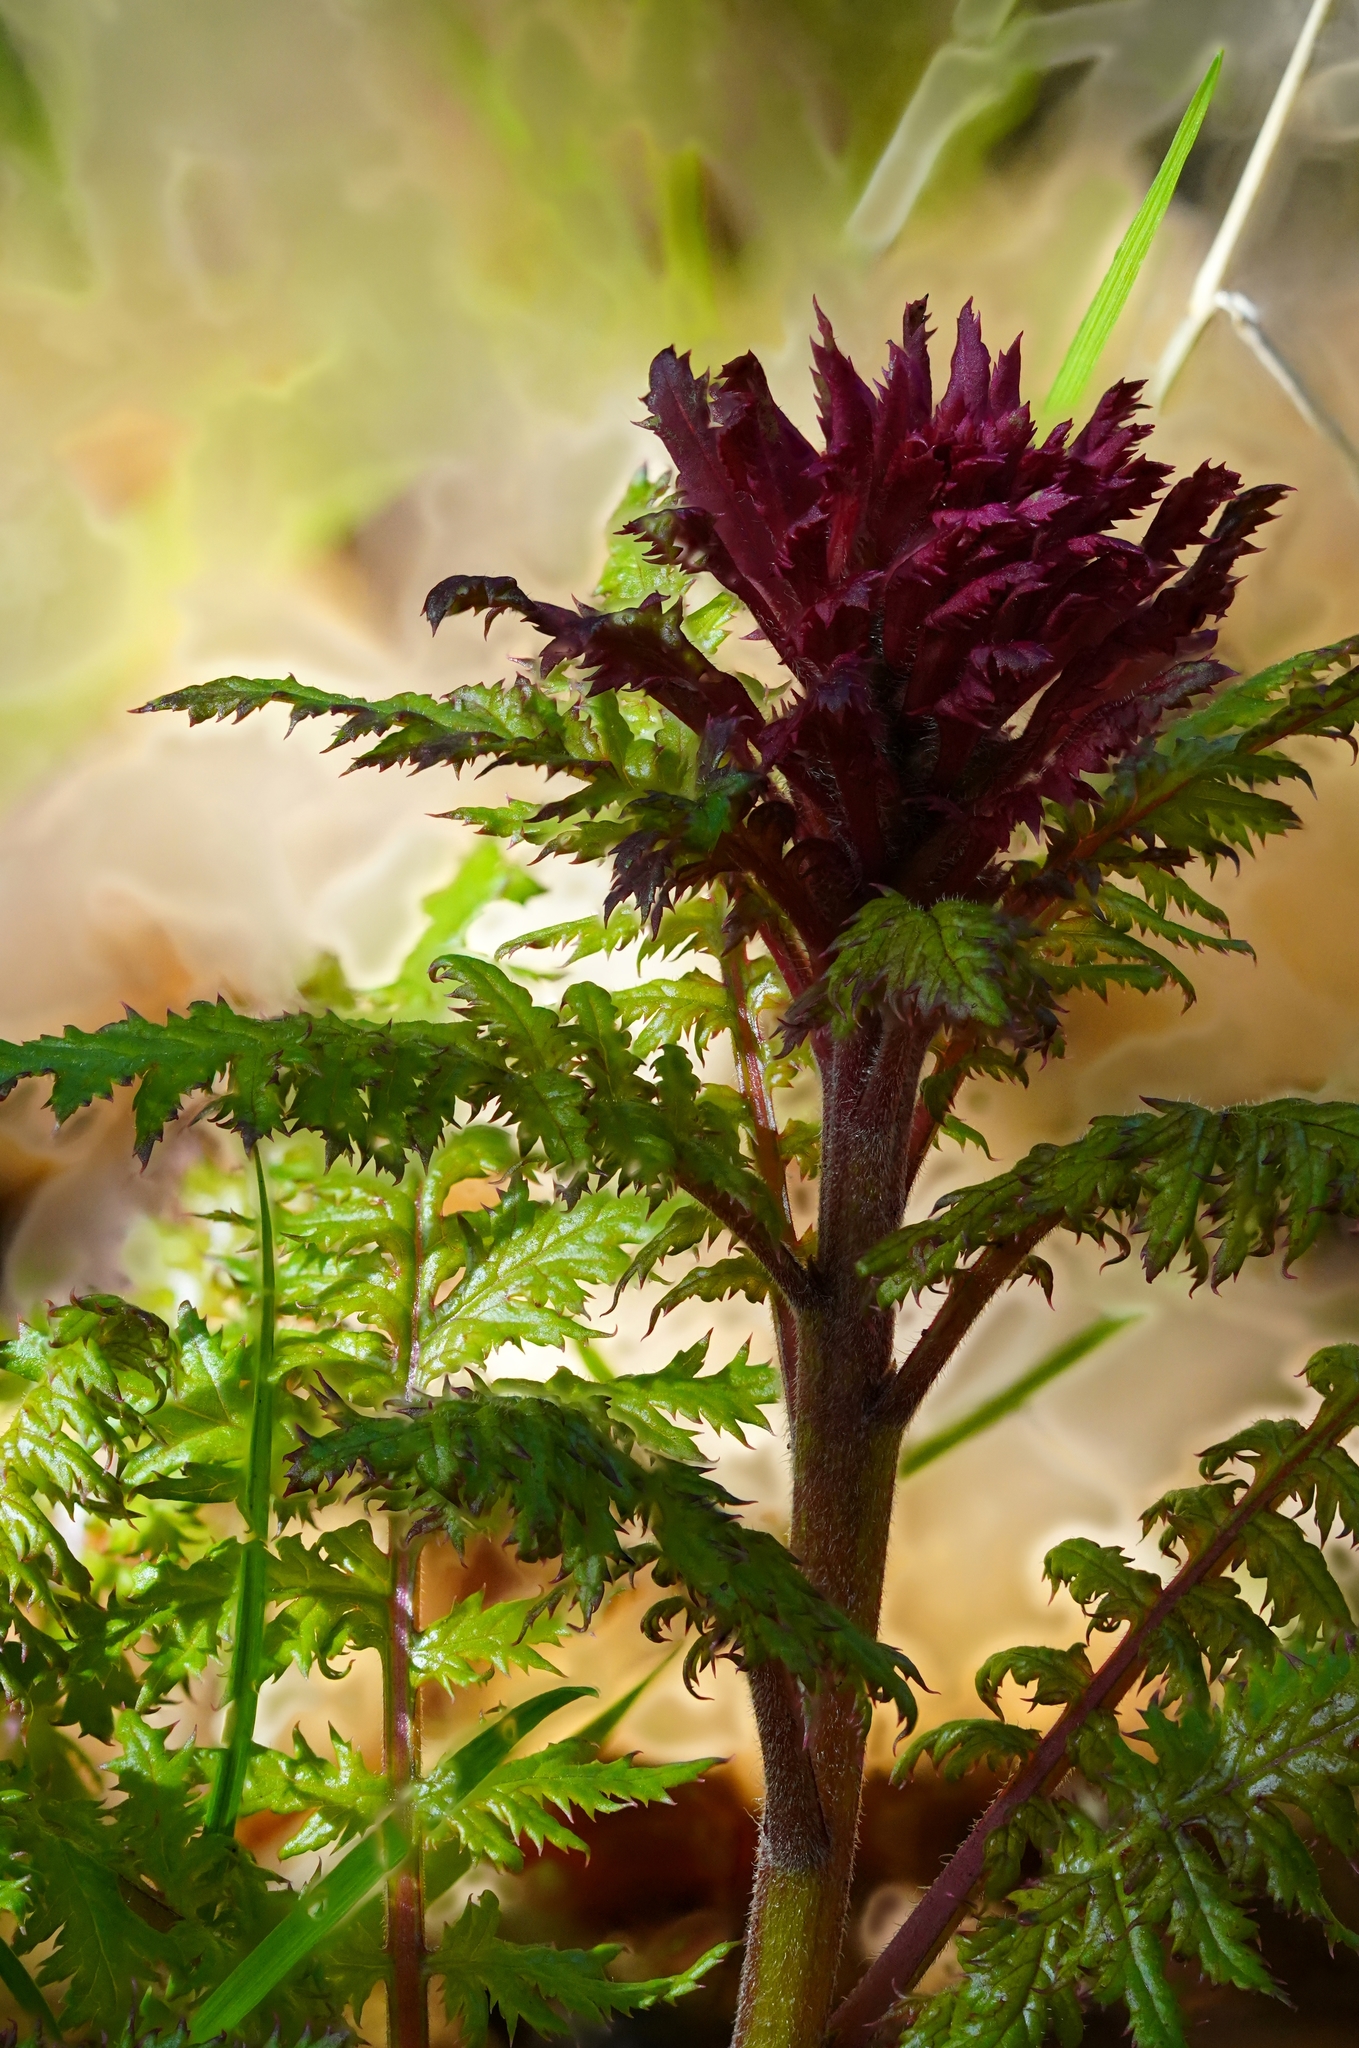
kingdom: Plantae
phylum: Tracheophyta
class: Magnoliopsida
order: Lamiales
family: Orobanchaceae
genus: Pedicularis
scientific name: Pedicularis densiflora
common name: Indian warrior
